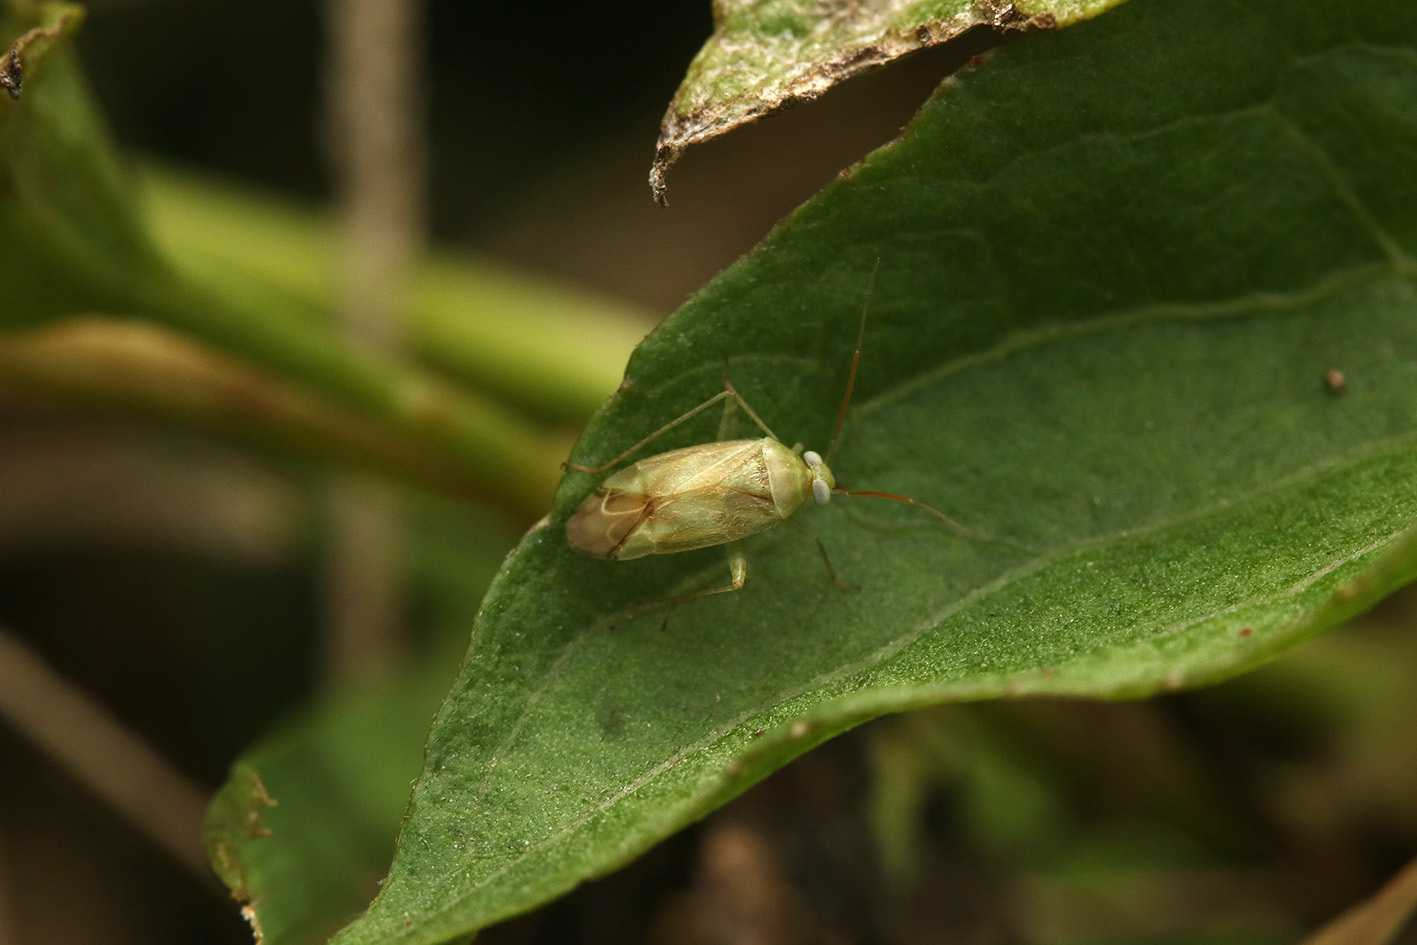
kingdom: Animalia
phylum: Arthropoda
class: Insecta
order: Hemiptera
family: Miridae
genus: Taylorilygus
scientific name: Taylorilygus apicalis
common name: Plant bug
